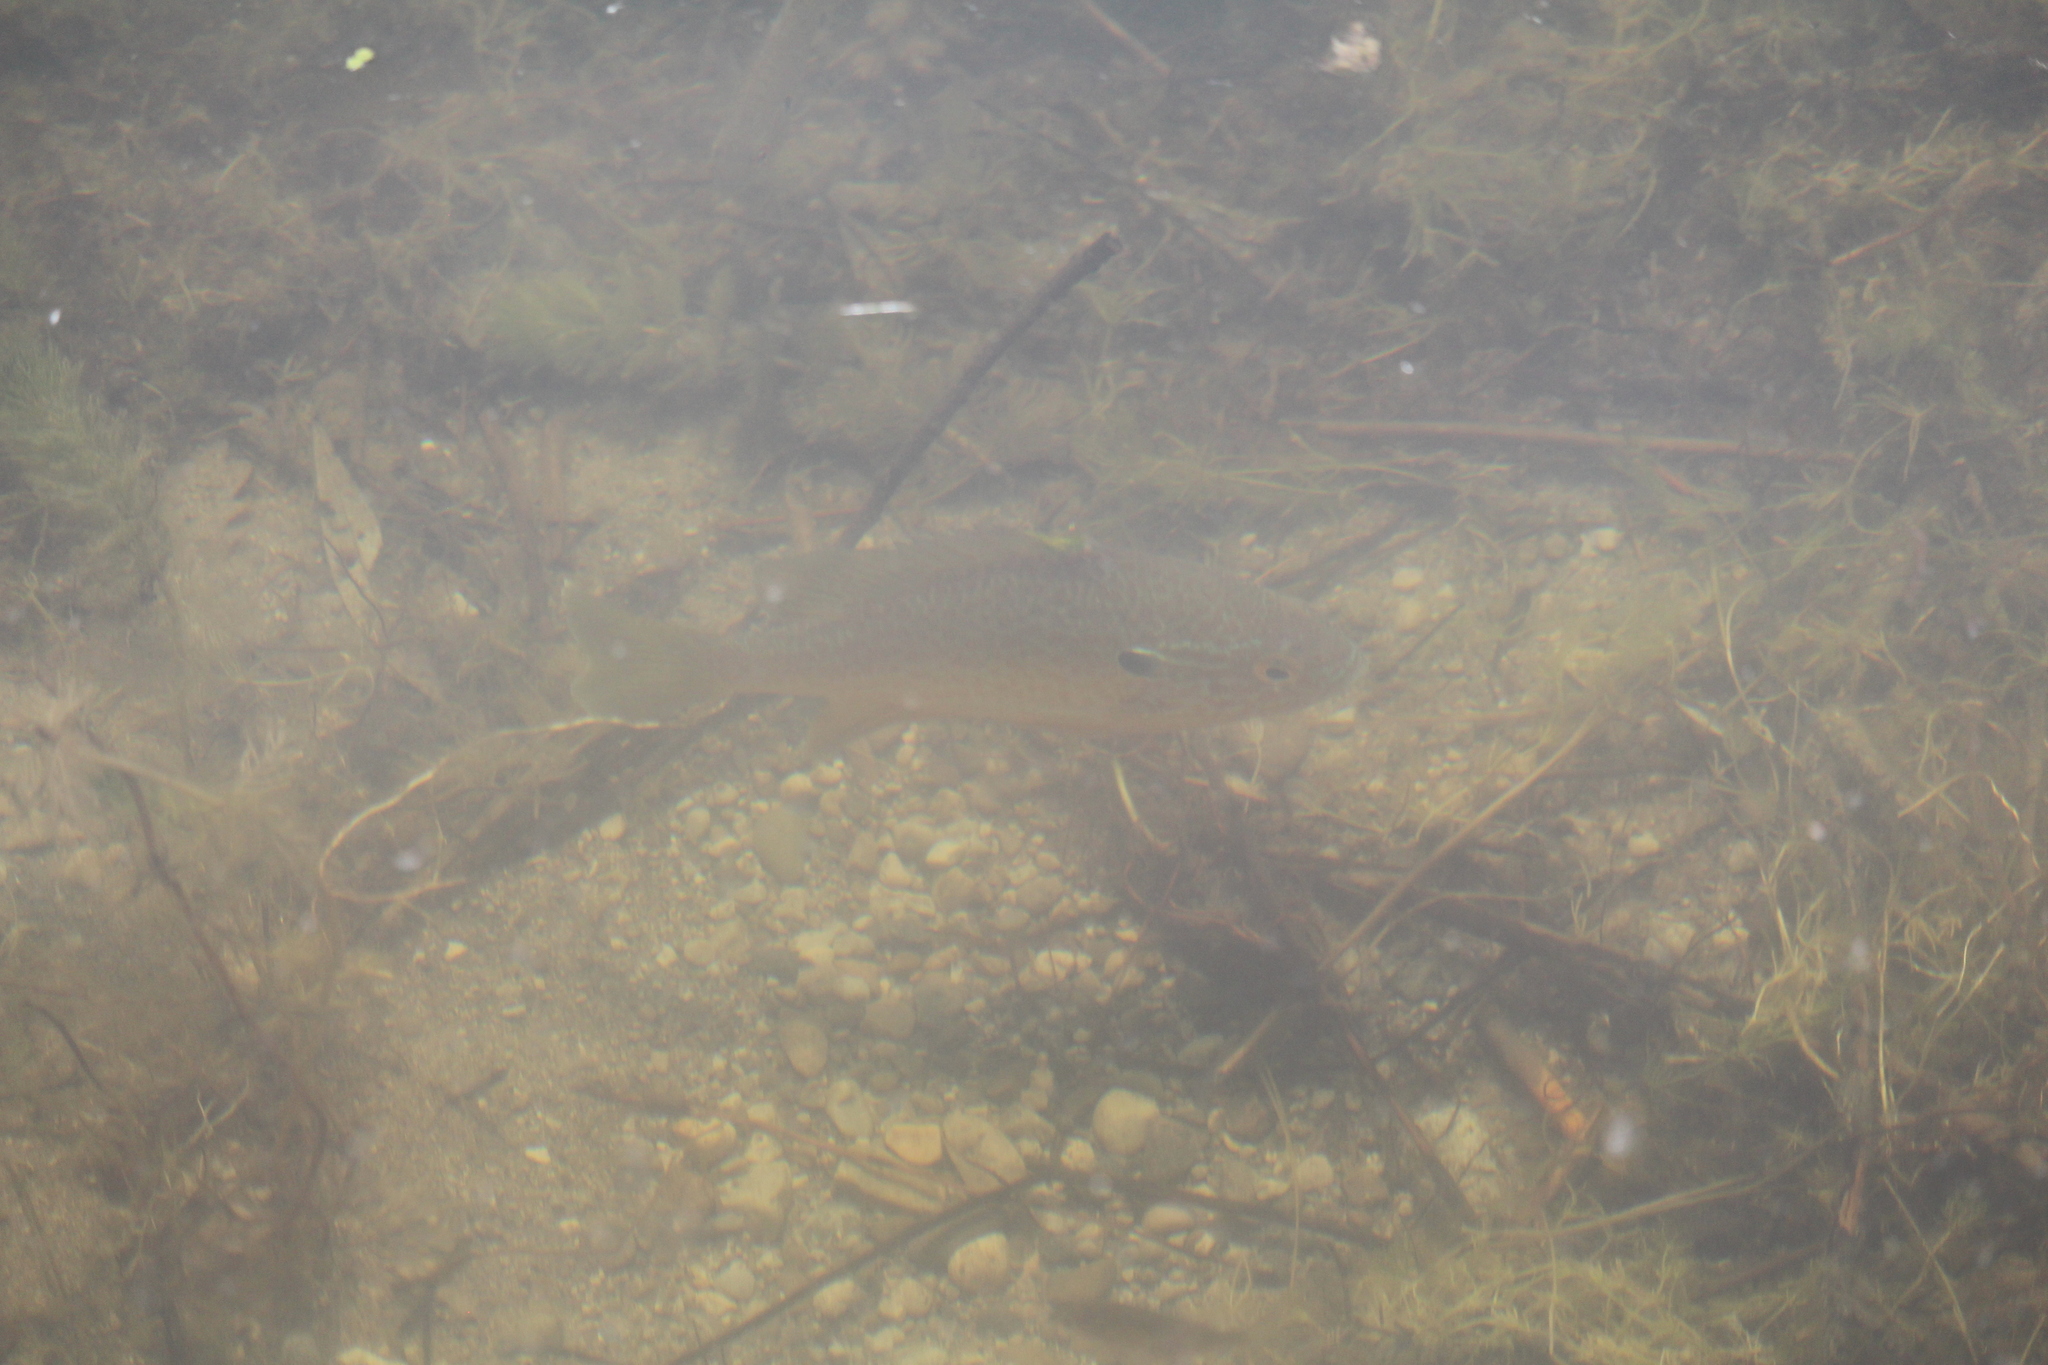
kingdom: Animalia
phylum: Chordata
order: Perciformes
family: Centrarchidae
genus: Lepomis
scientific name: Lepomis gibbosus
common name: Pumpkinseed
